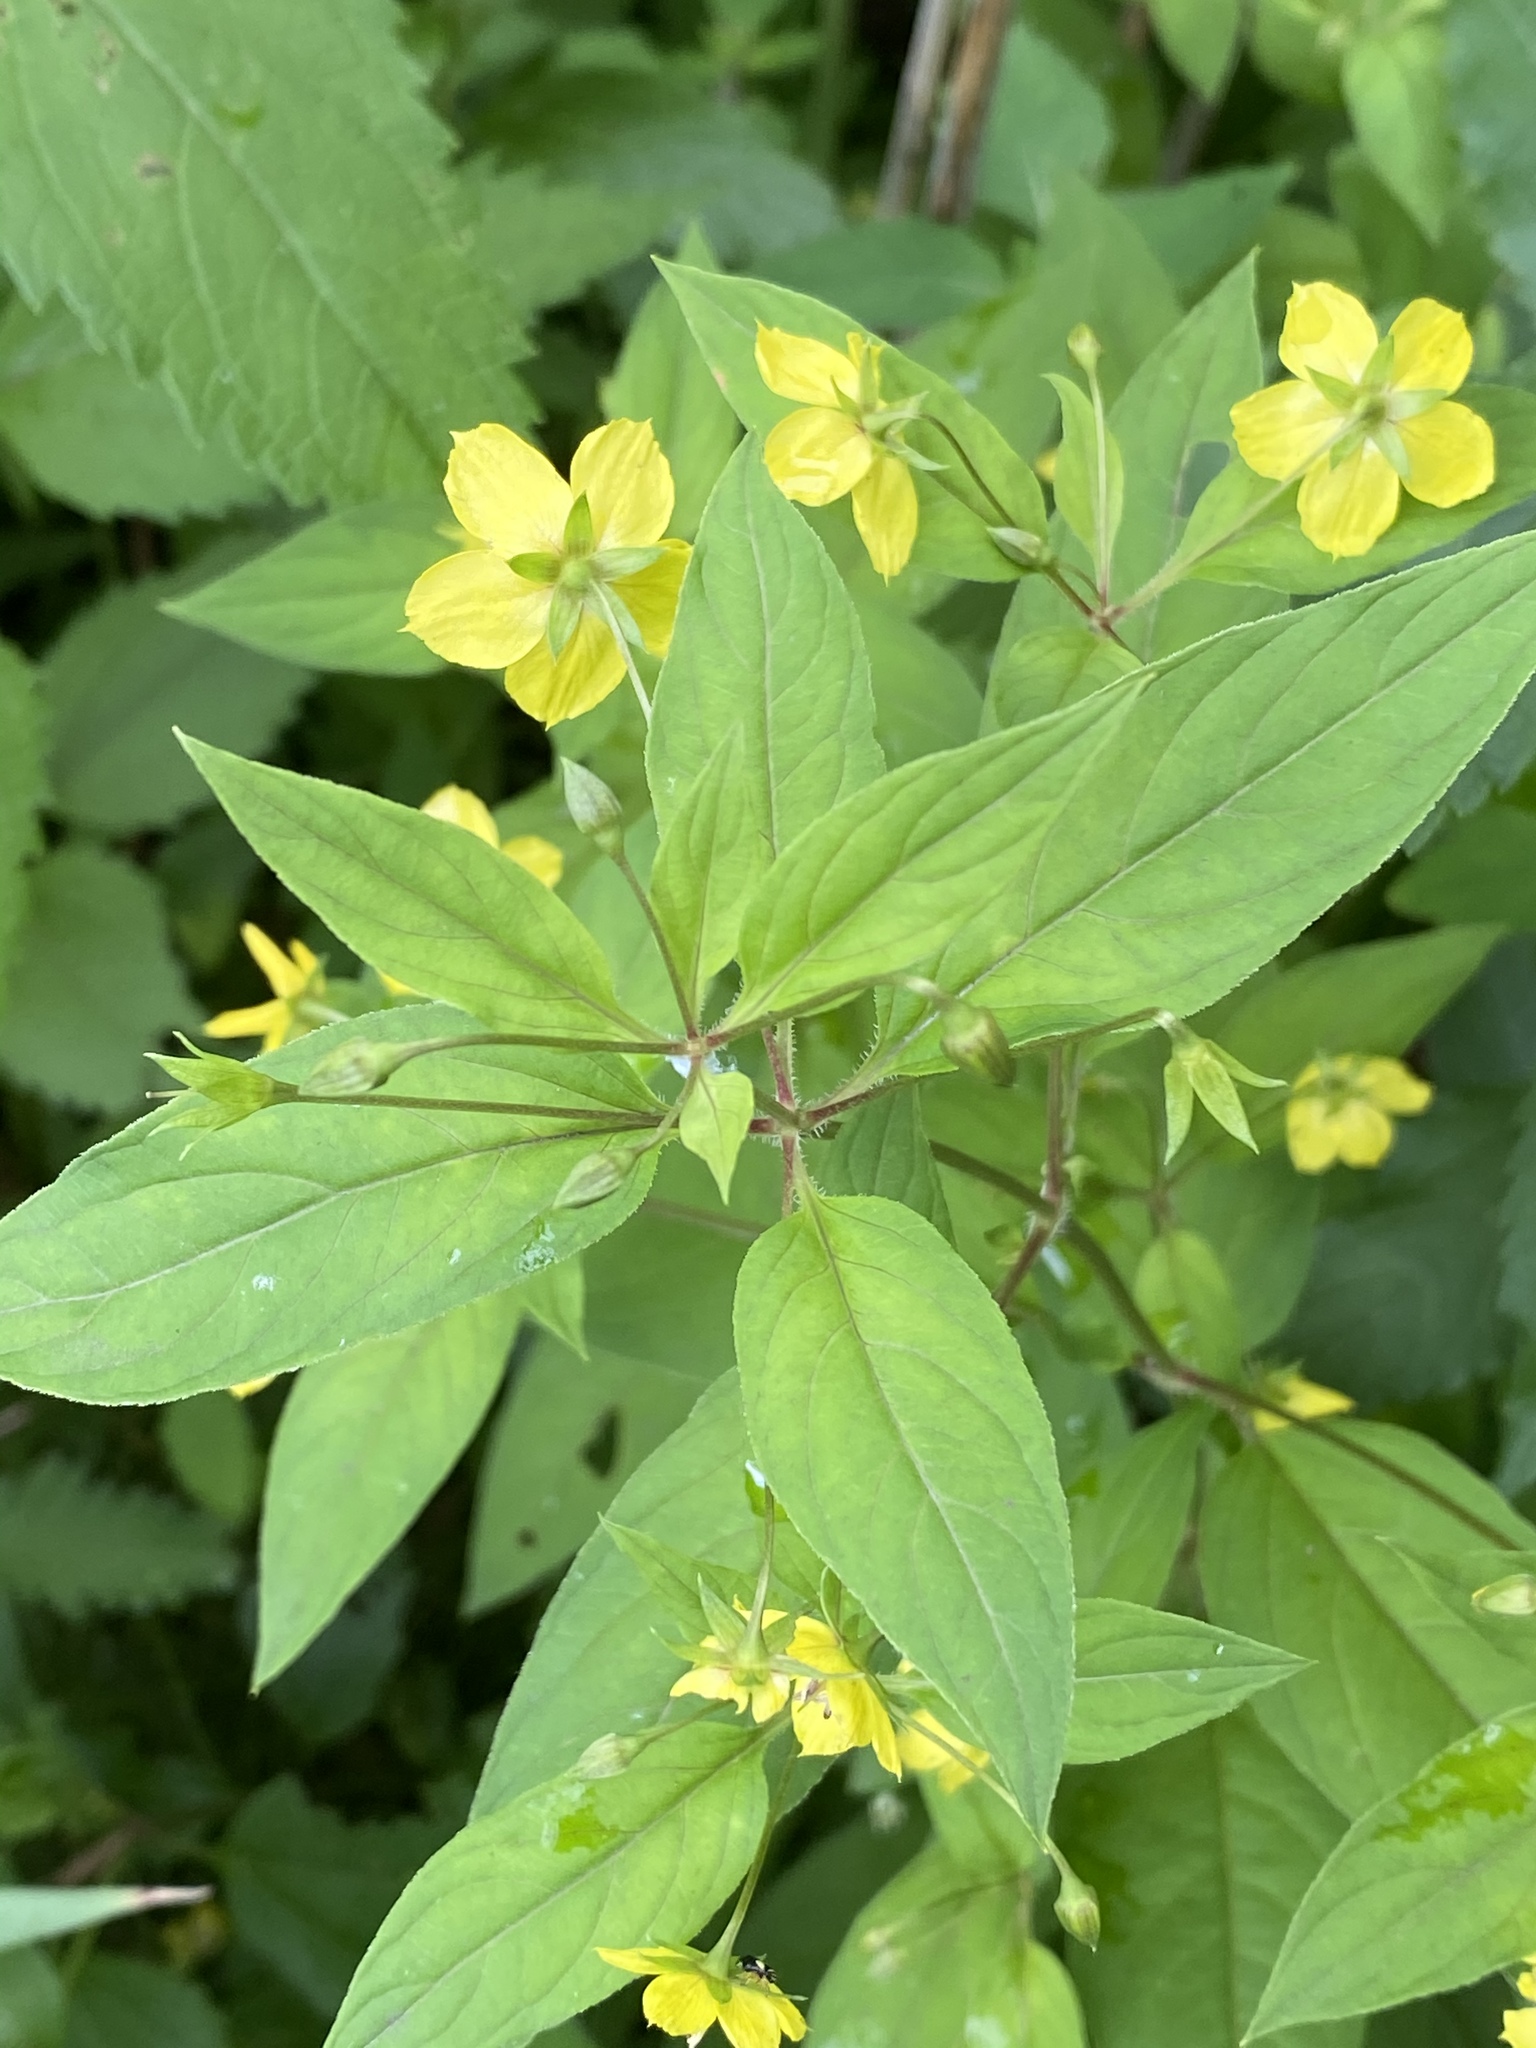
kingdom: Plantae
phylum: Tracheophyta
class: Magnoliopsida
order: Ericales
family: Primulaceae
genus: Lysimachia
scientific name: Lysimachia ciliata
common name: Fringed loosestrife
